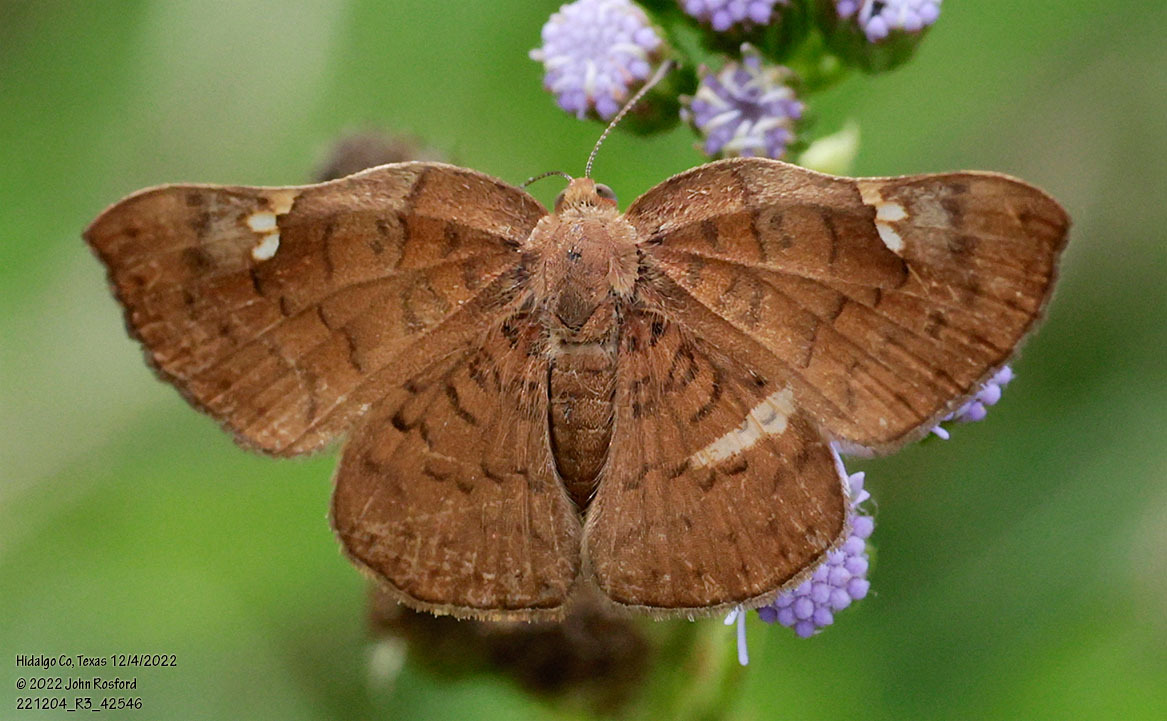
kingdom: Animalia
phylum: Arthropoda
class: Insecta
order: Lepidoptera
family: Riodinidae
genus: Curvie
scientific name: Curvie emesia
